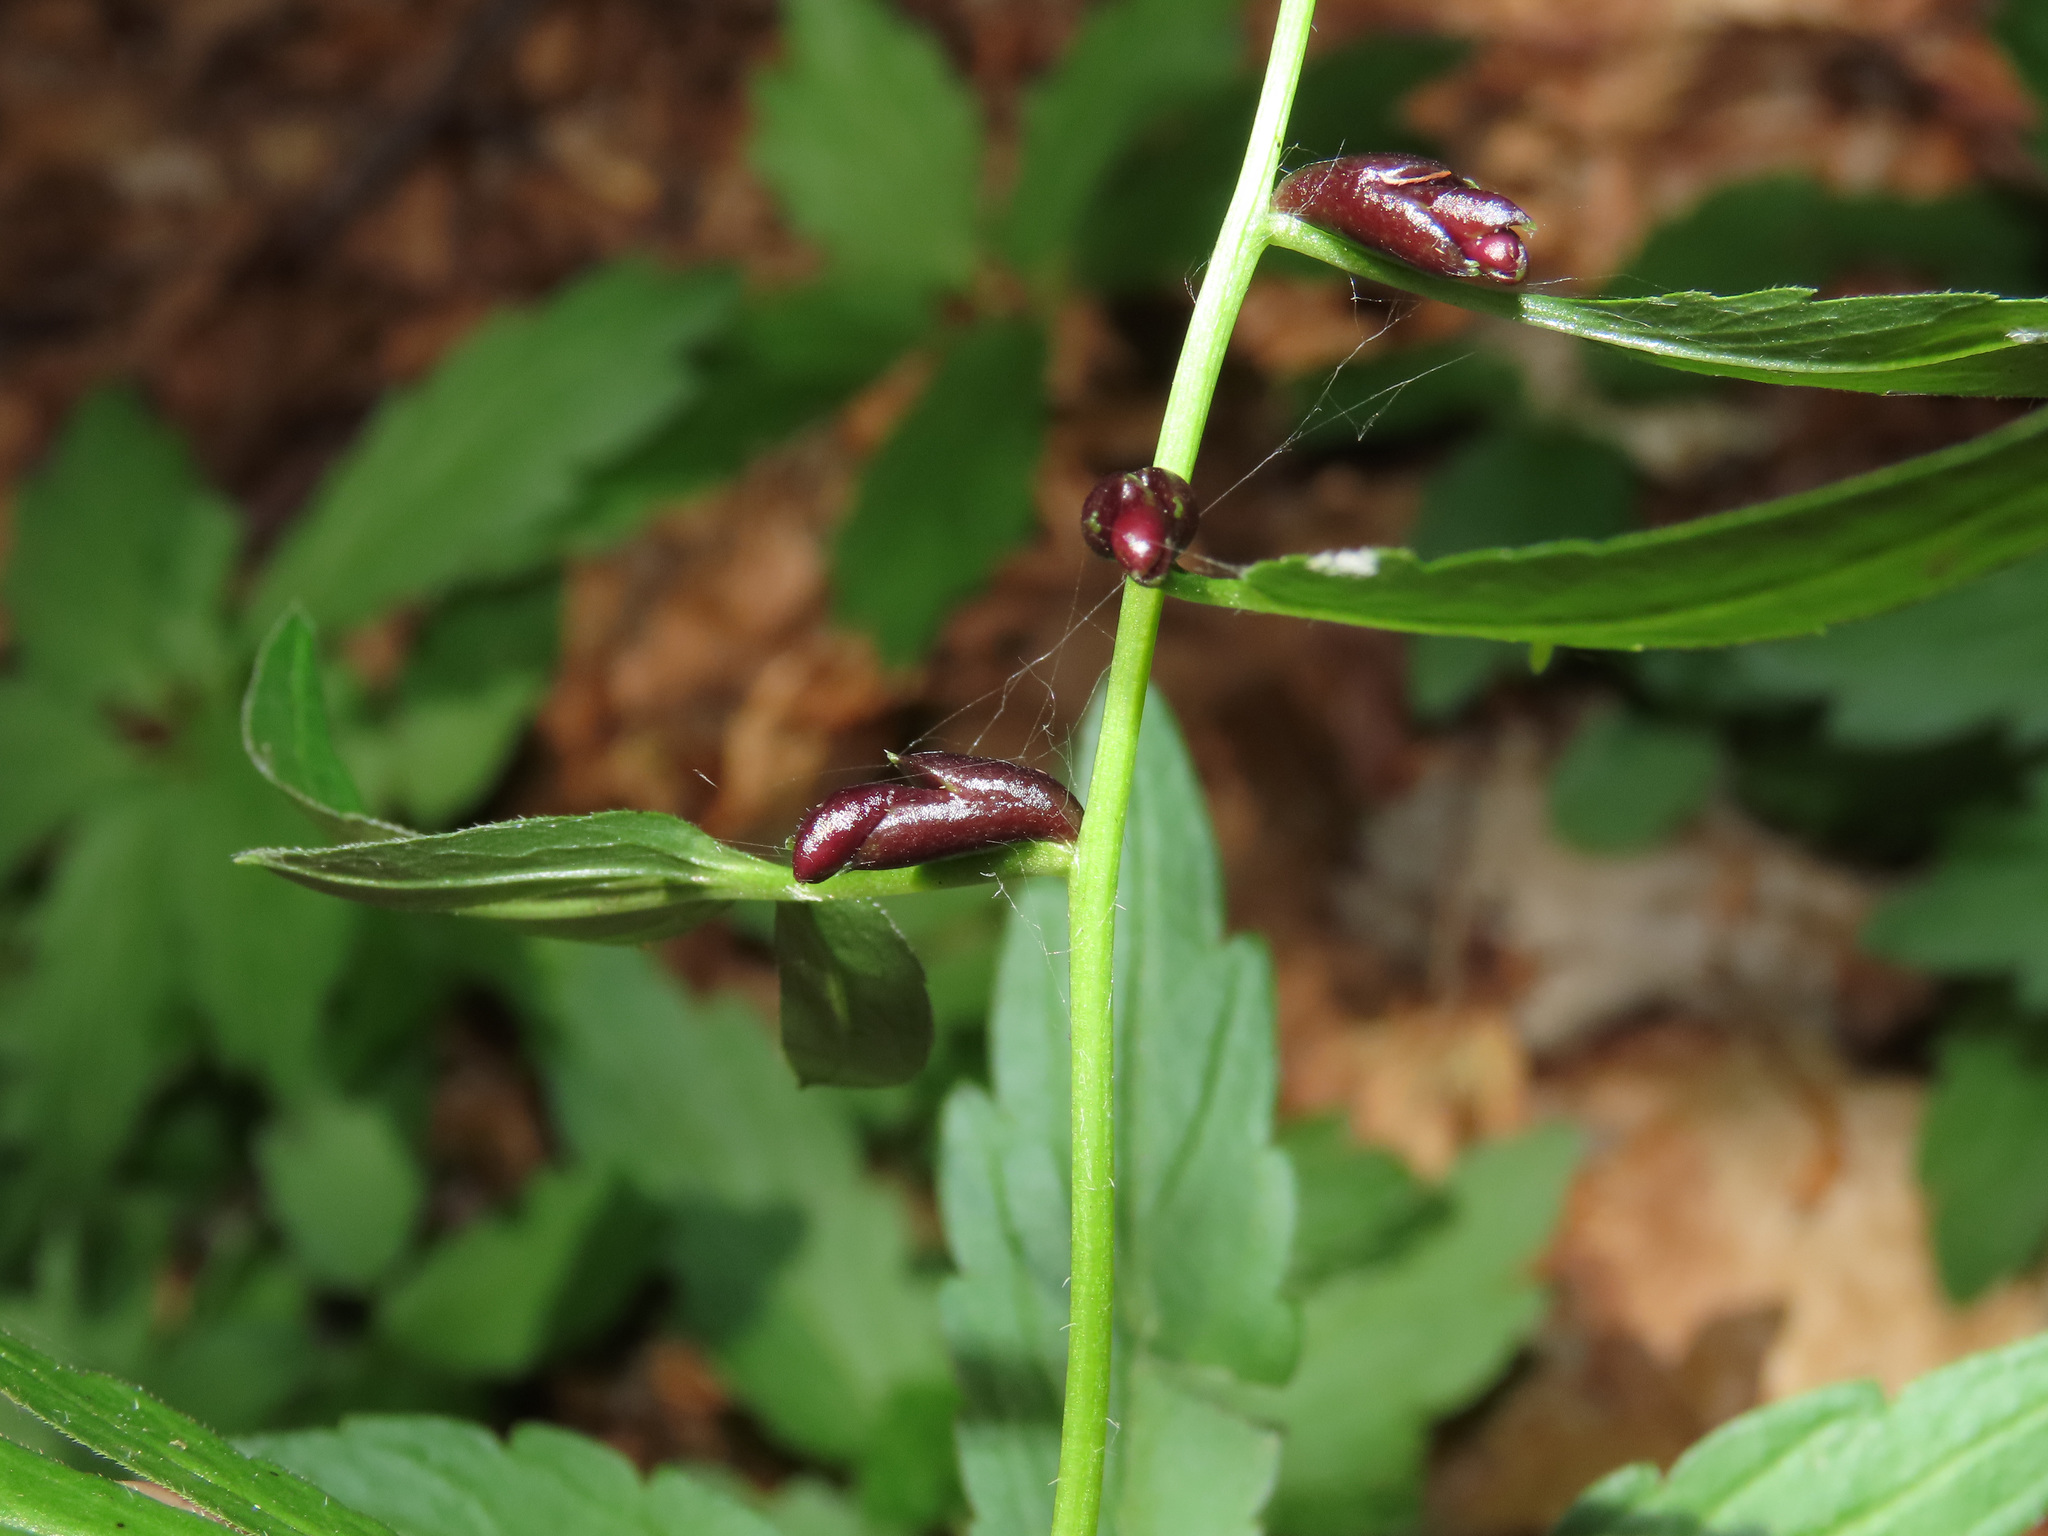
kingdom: Plantae
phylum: Tracheophyta
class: Magnoliopsida
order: Brassicales
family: Brassicaceae
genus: Cardamine
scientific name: Cardamine bulbifera
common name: Coralroot bittercress
